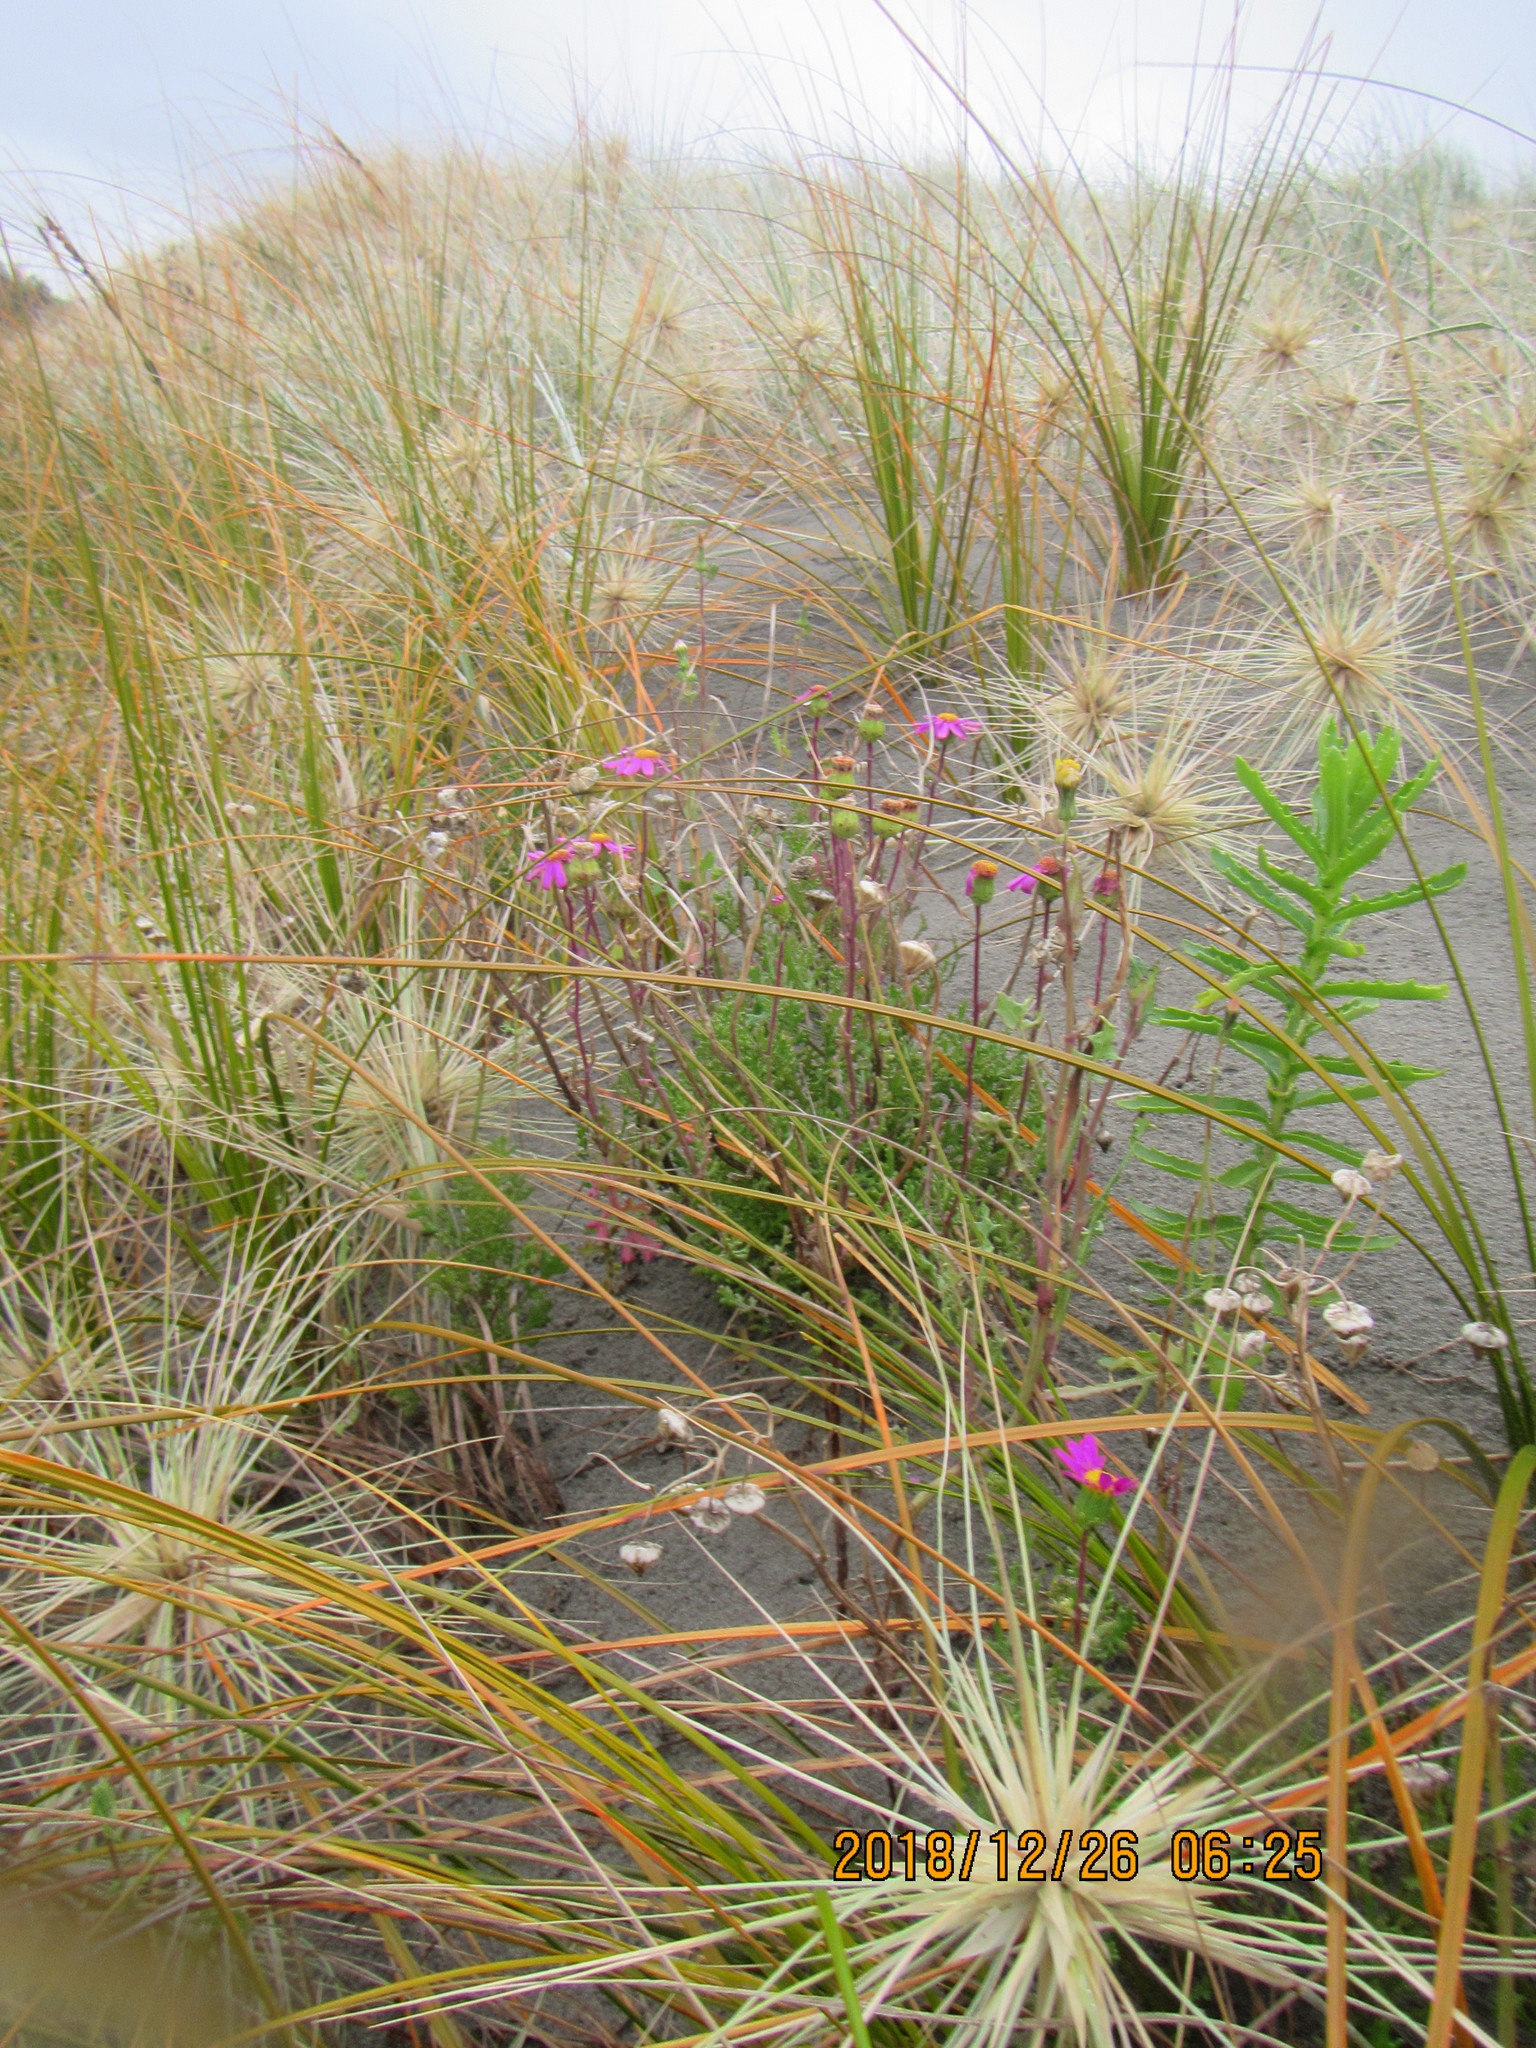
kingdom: Plantae
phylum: Tracheophyta
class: Magnoliopsida
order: Asterales
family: Asteraceae
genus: Senecio
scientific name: Senecio elegans
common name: Purple groundsel
